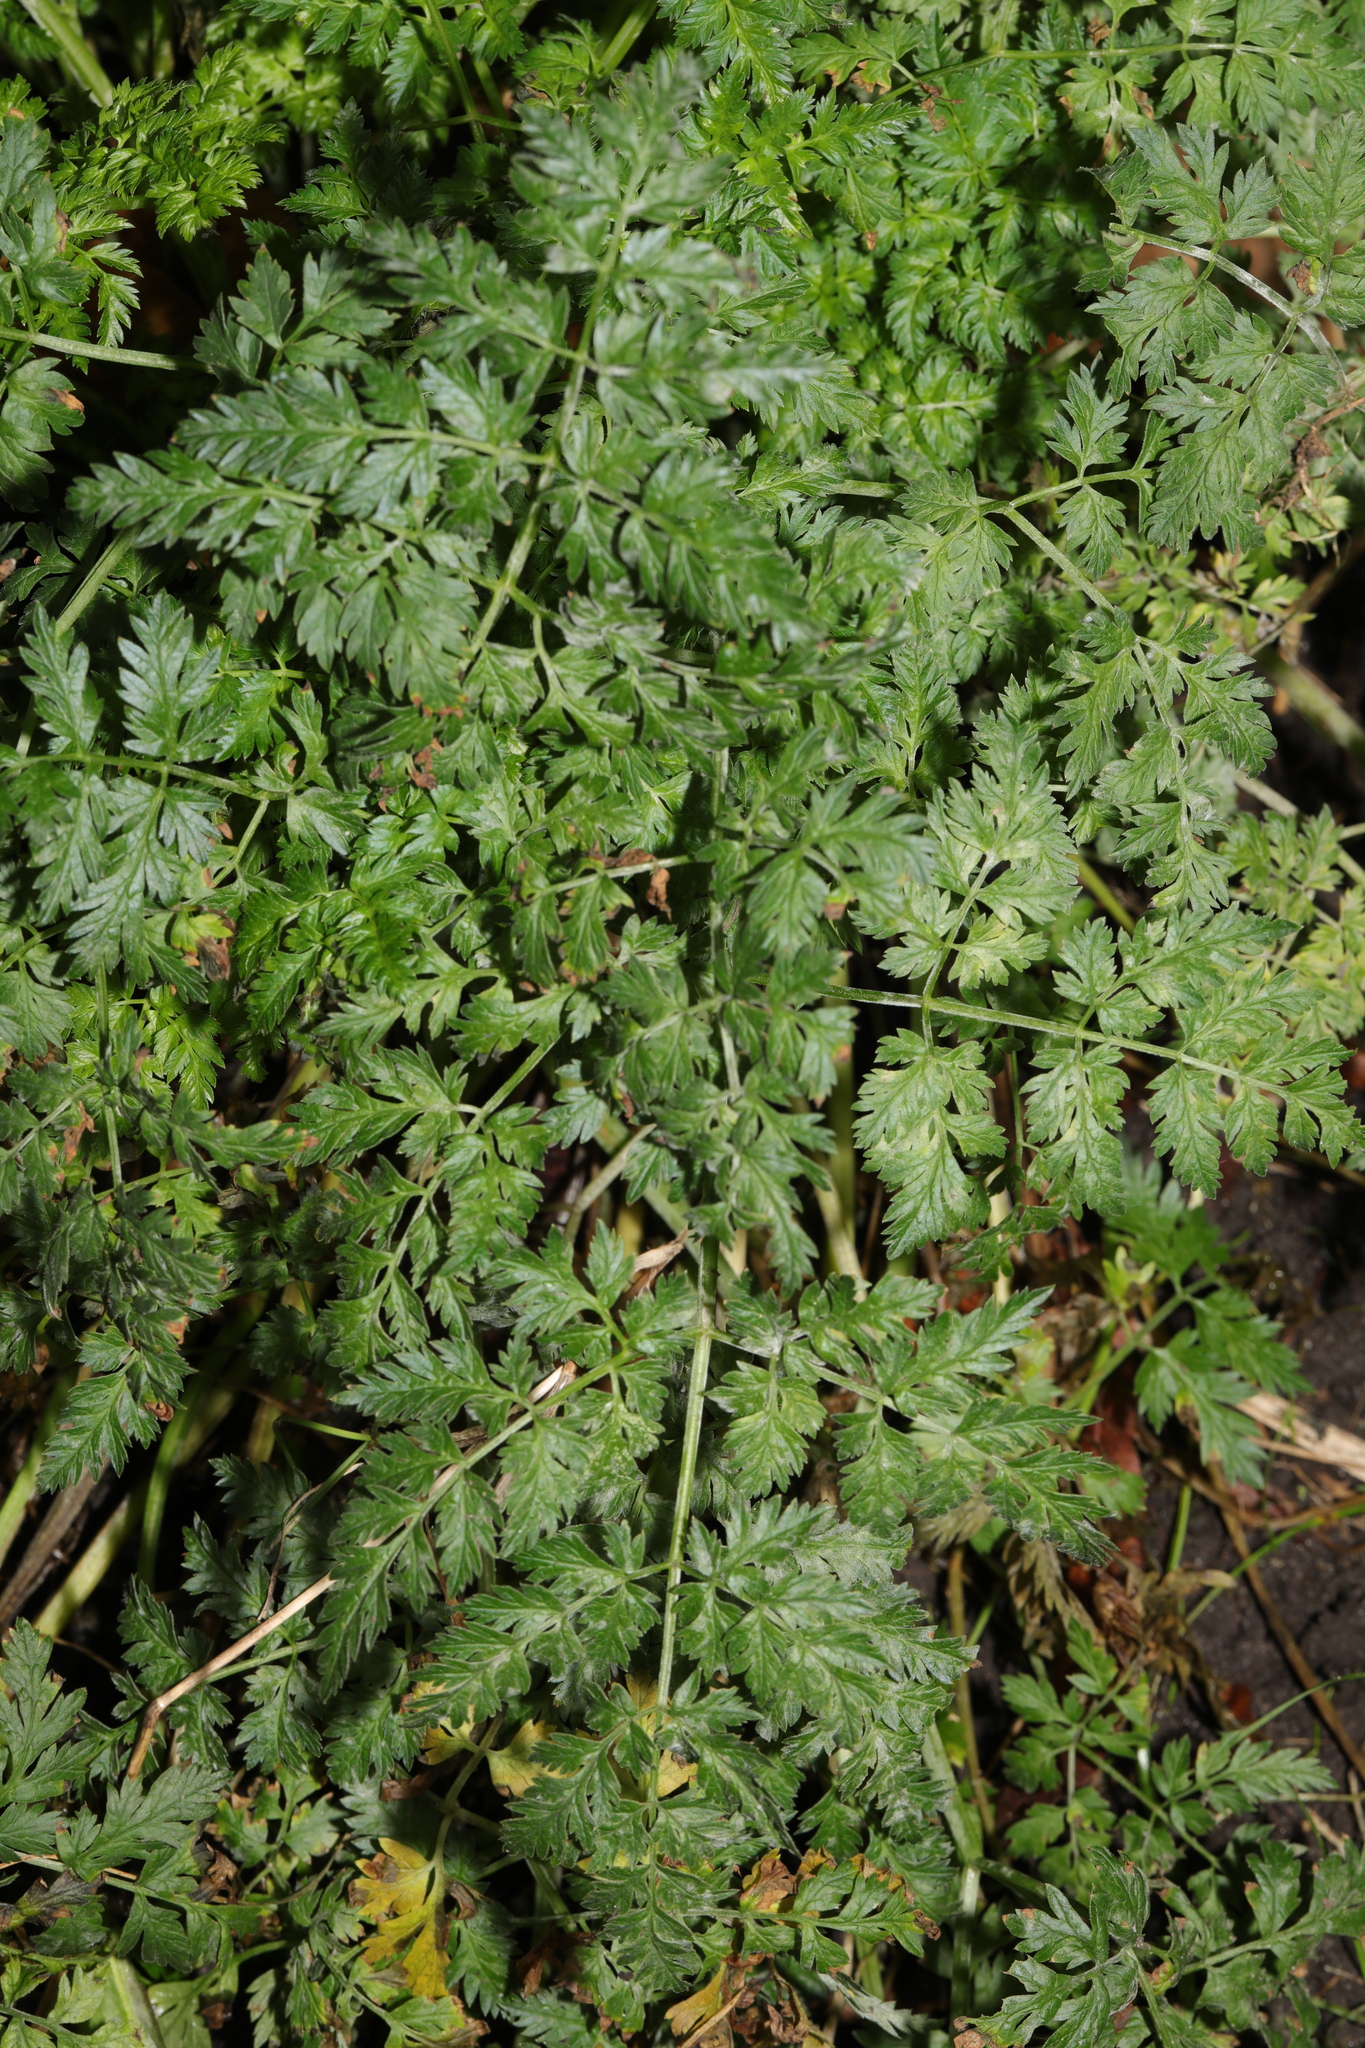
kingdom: Plantae
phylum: Tracheophyta
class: Magnoliopsida
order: Apiales
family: Apiaceae
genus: Anthriscus
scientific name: Anthriscus sylvestris
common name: Cow parsley
